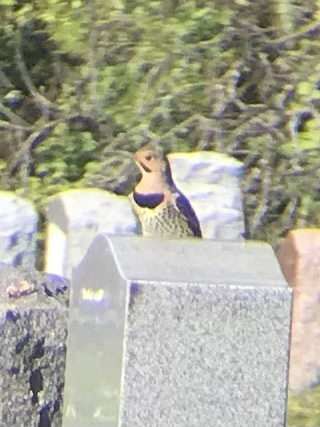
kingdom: Animalia
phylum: Chordata
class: Aves
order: Piciformes
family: Picidae
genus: Colaptes
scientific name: Colaptes auratus
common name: Northern flicker
